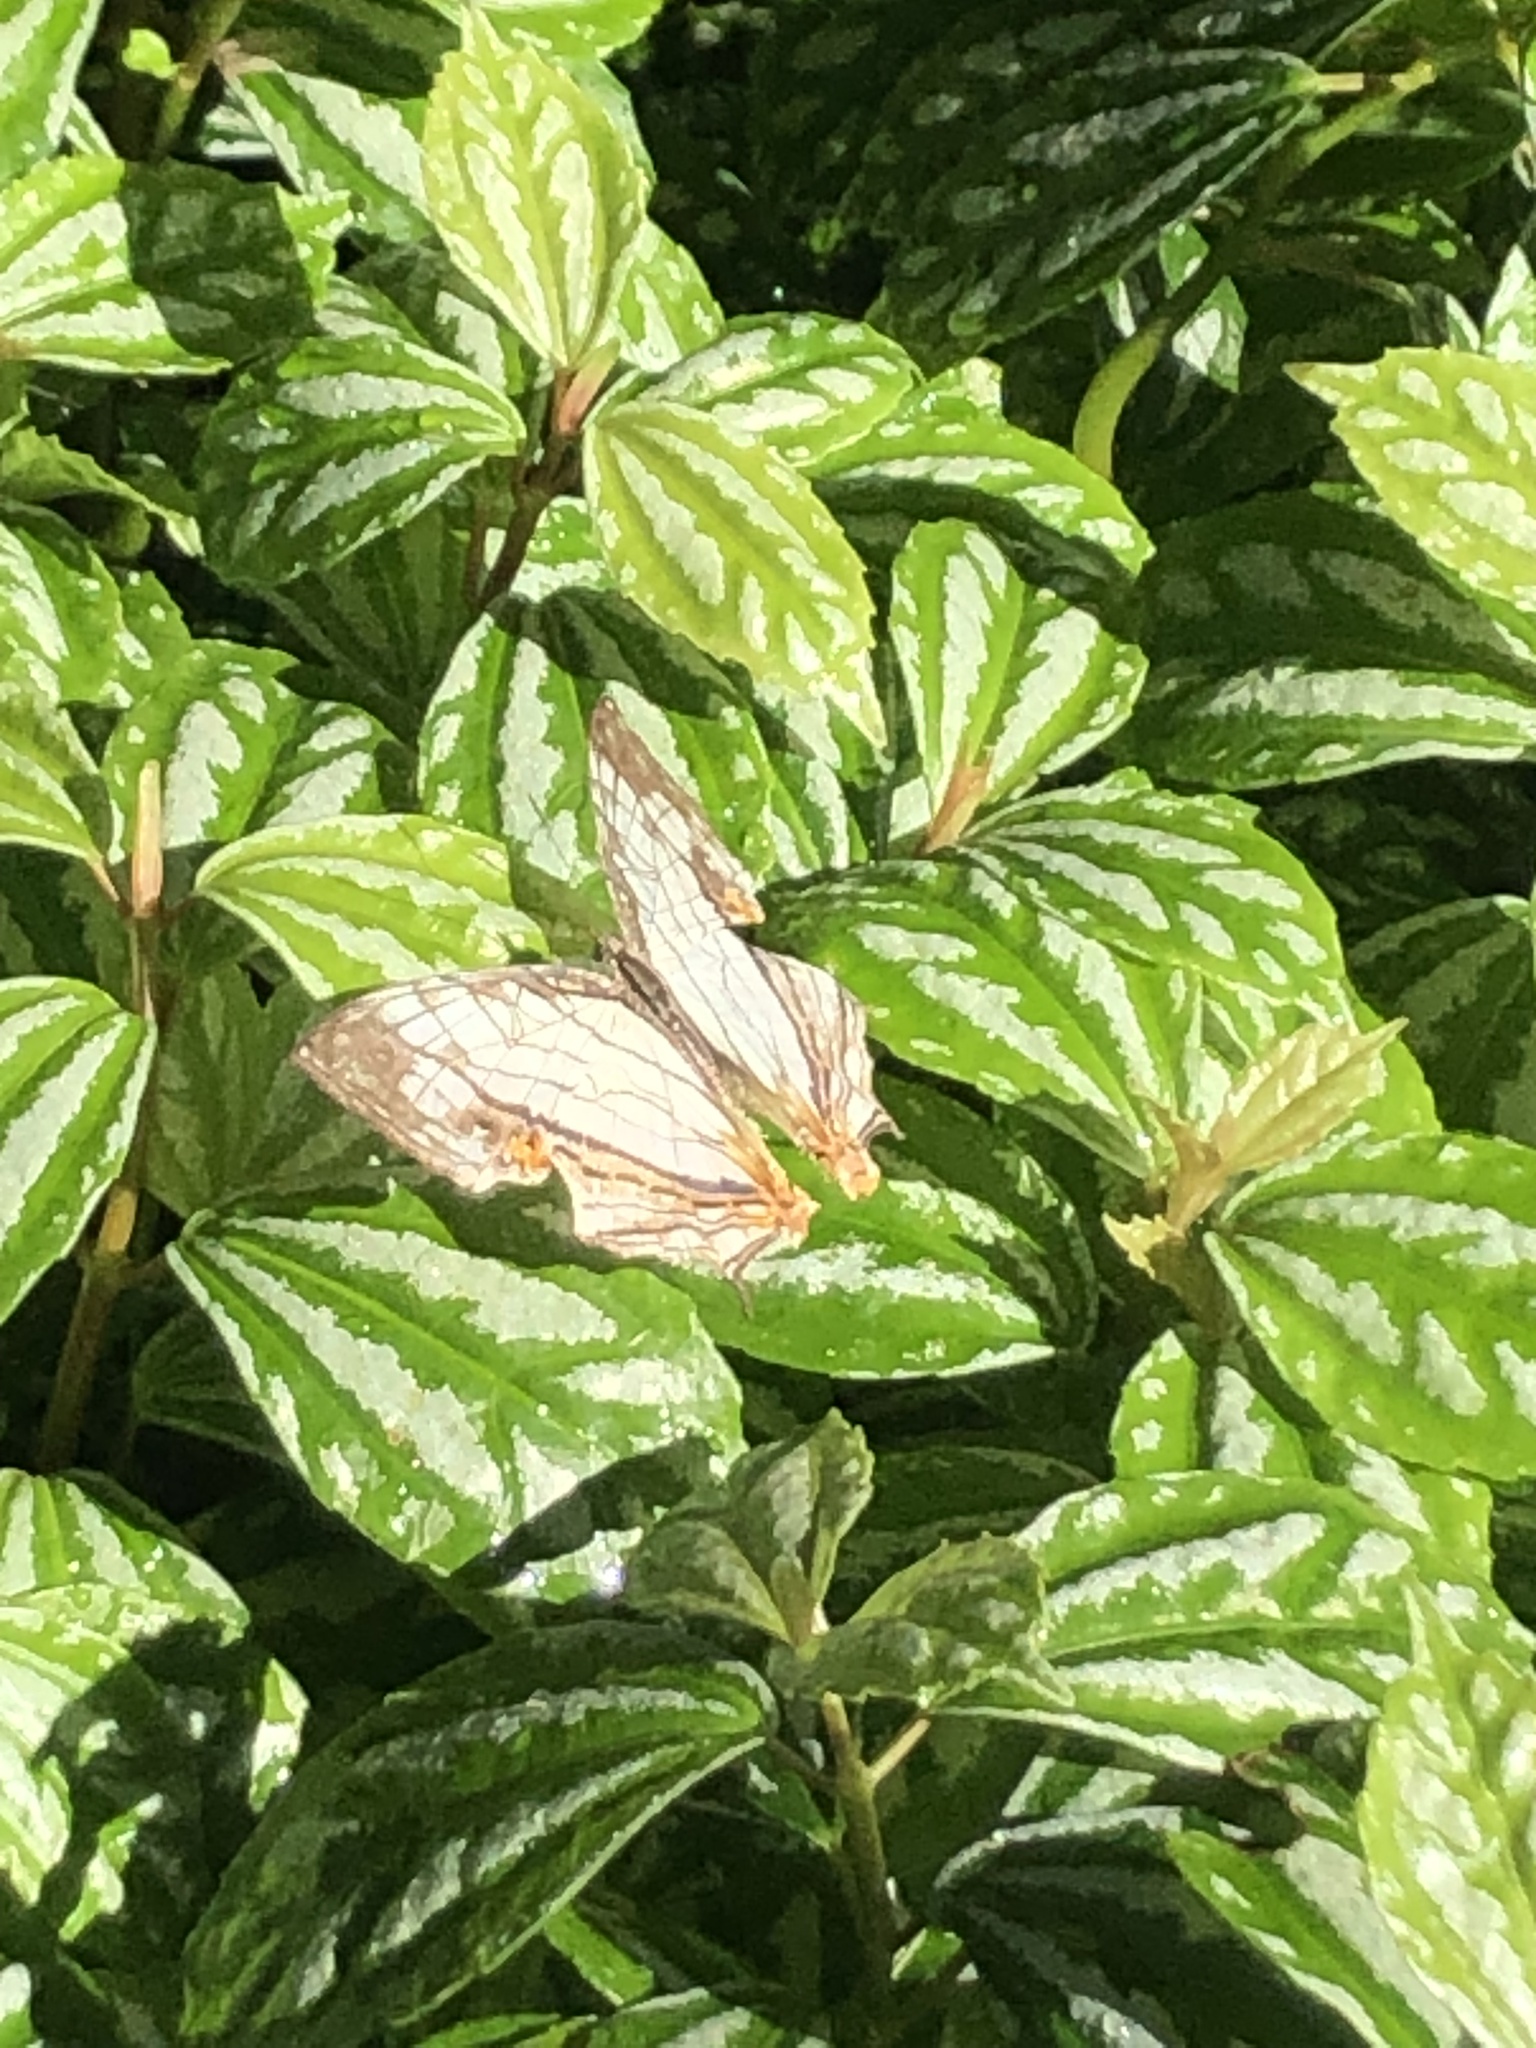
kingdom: Animalia
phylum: Arthropoda
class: Insecta
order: Lepidoptera
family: Nymphalidae
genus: Cyrestis
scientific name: Cyrestis thyodamas
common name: Common mapwing
